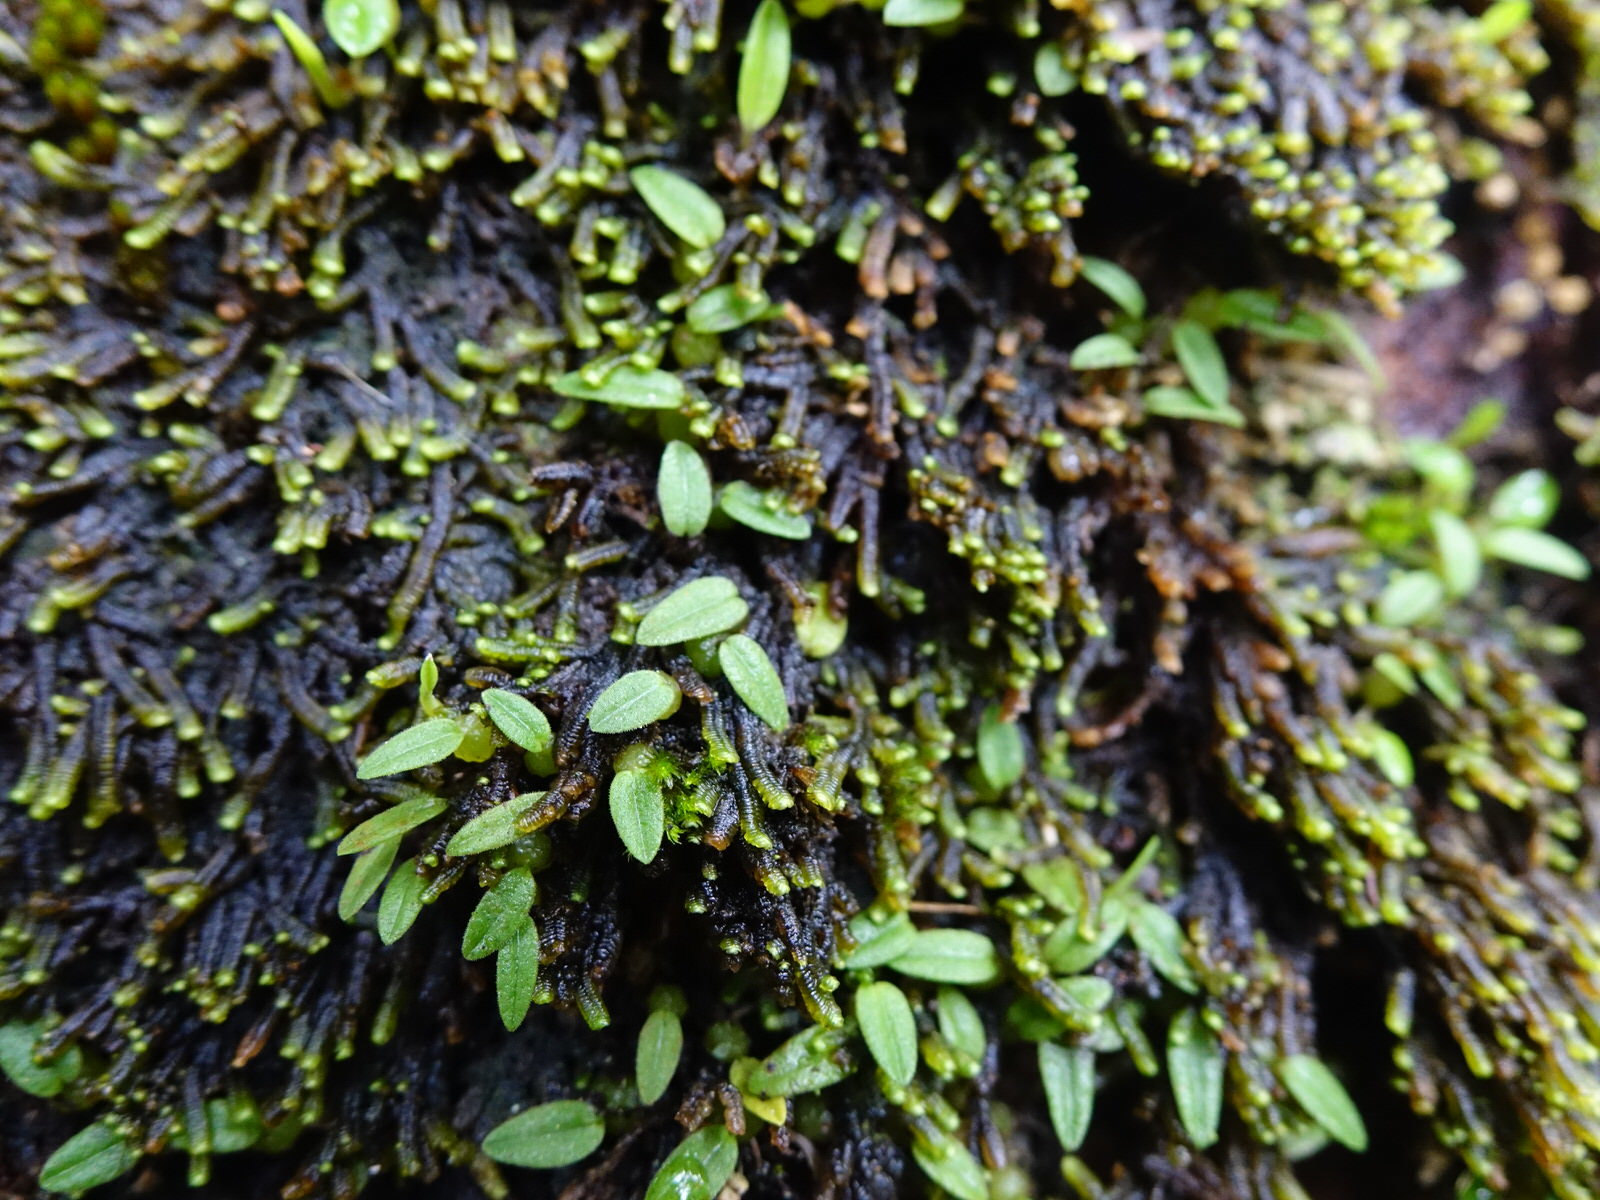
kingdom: Plantae
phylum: Tracheophyta
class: Liliopsida
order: Asparagales
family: Orchidaceae
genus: Bulbophyllum
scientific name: Bulbophyllum pygmaeum
